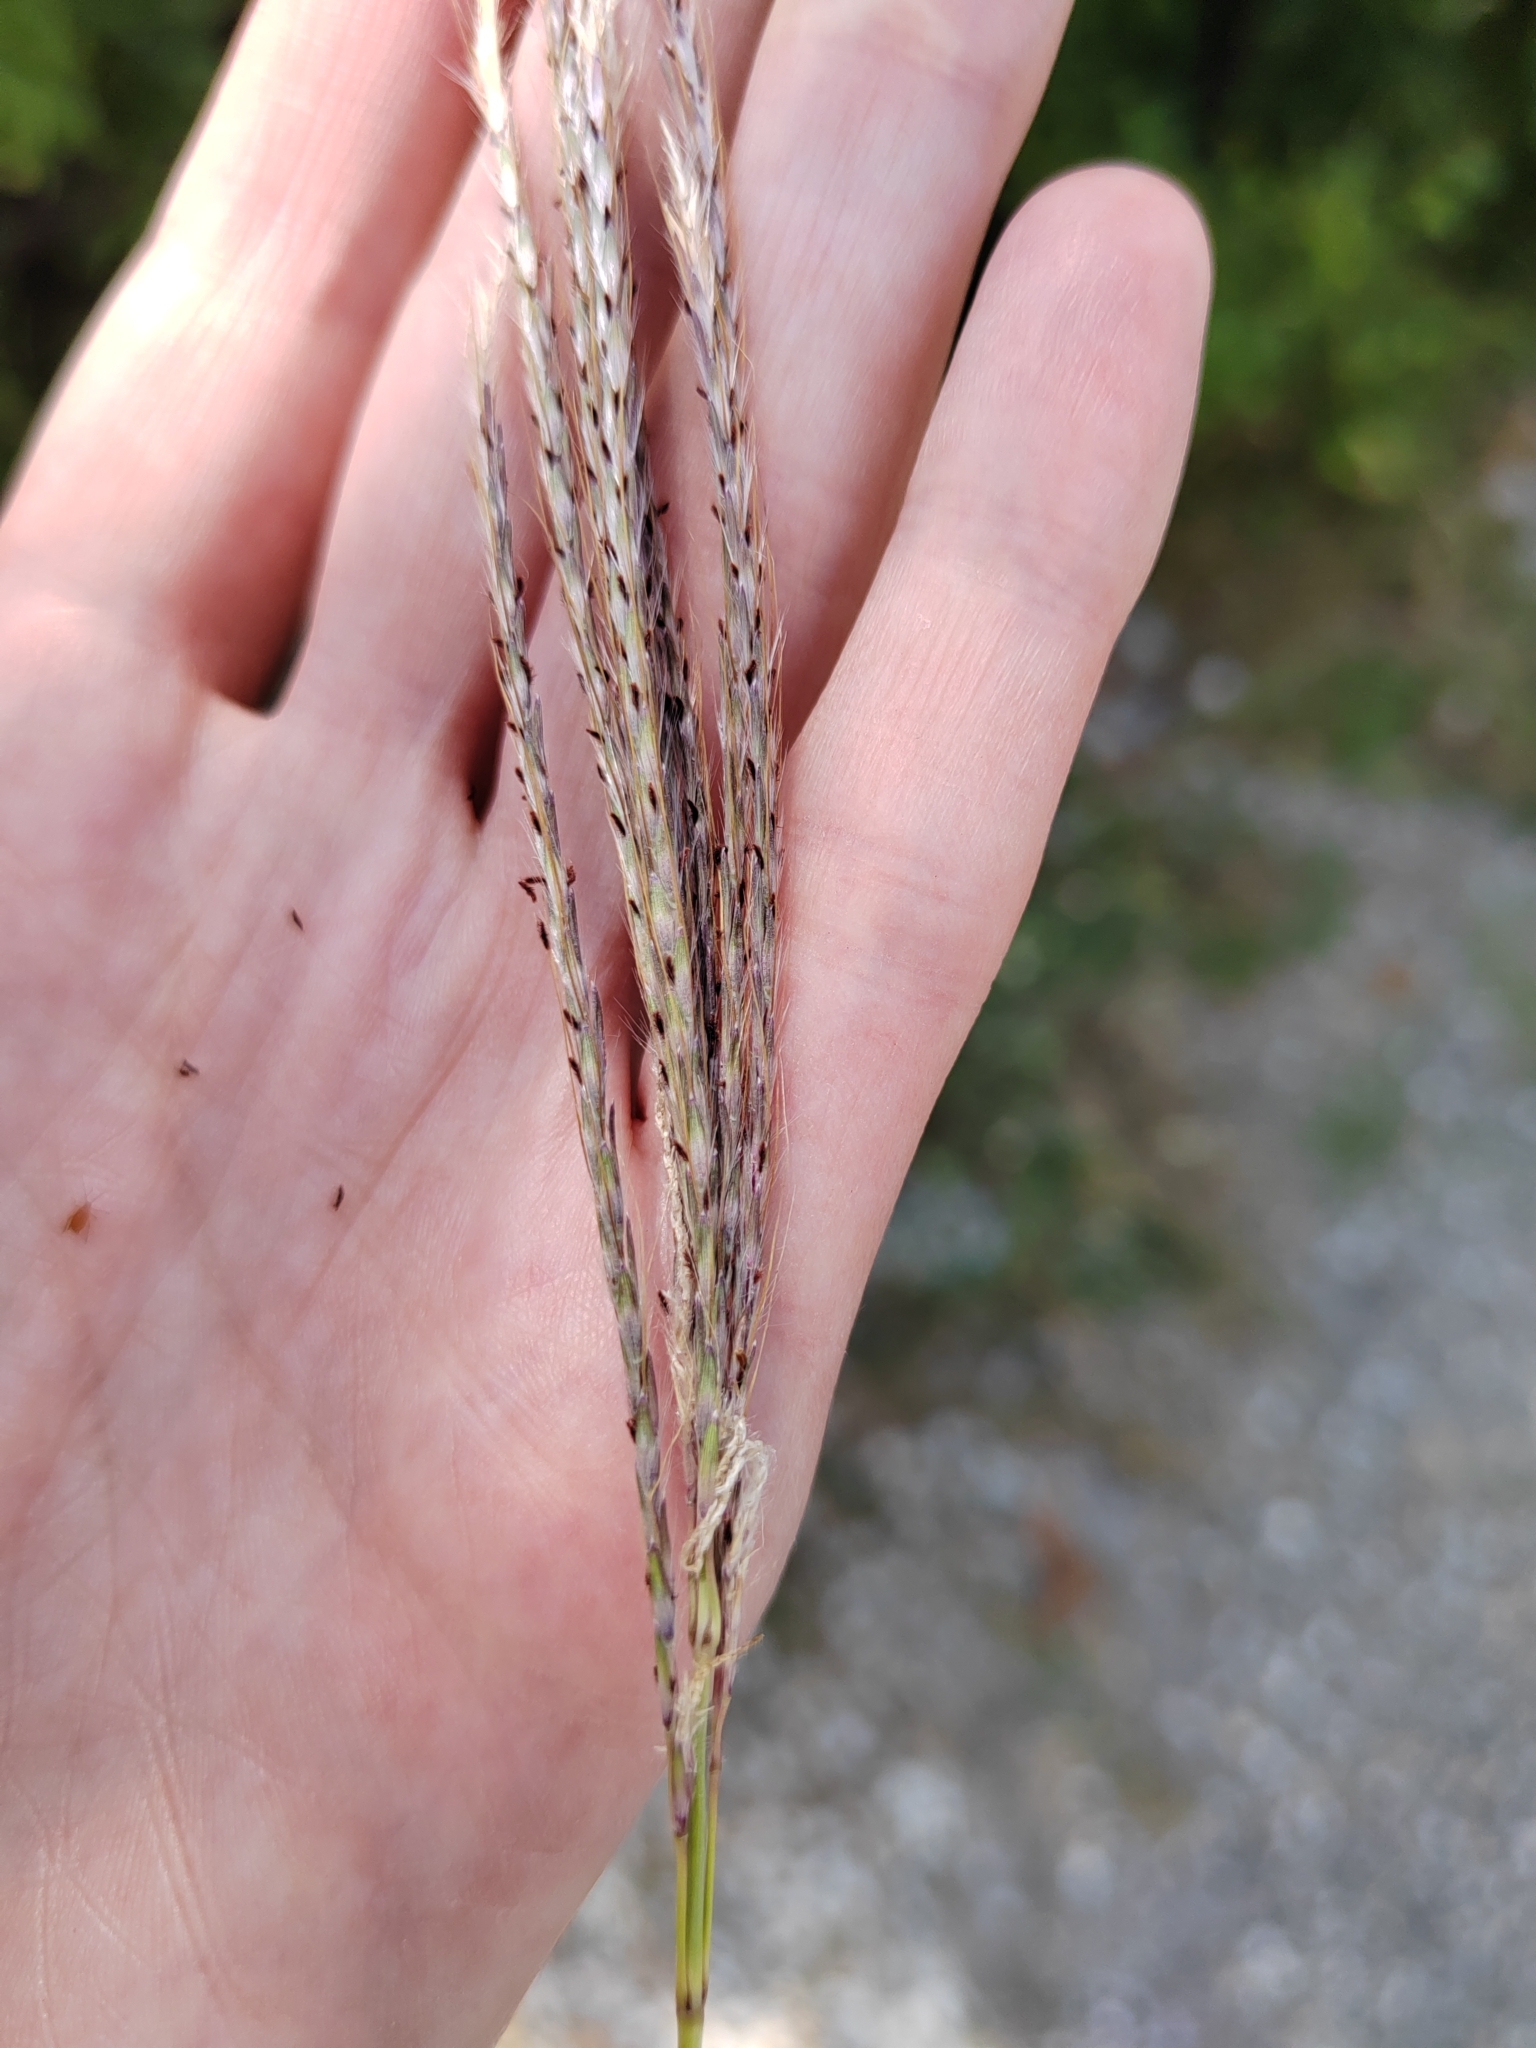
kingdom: Plantae
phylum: Tracheophyta
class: Liliopsida
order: Poales
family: Poaceae
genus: Bothriochloa
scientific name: Bothriochloa ischaemum
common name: Yellow bluestem
